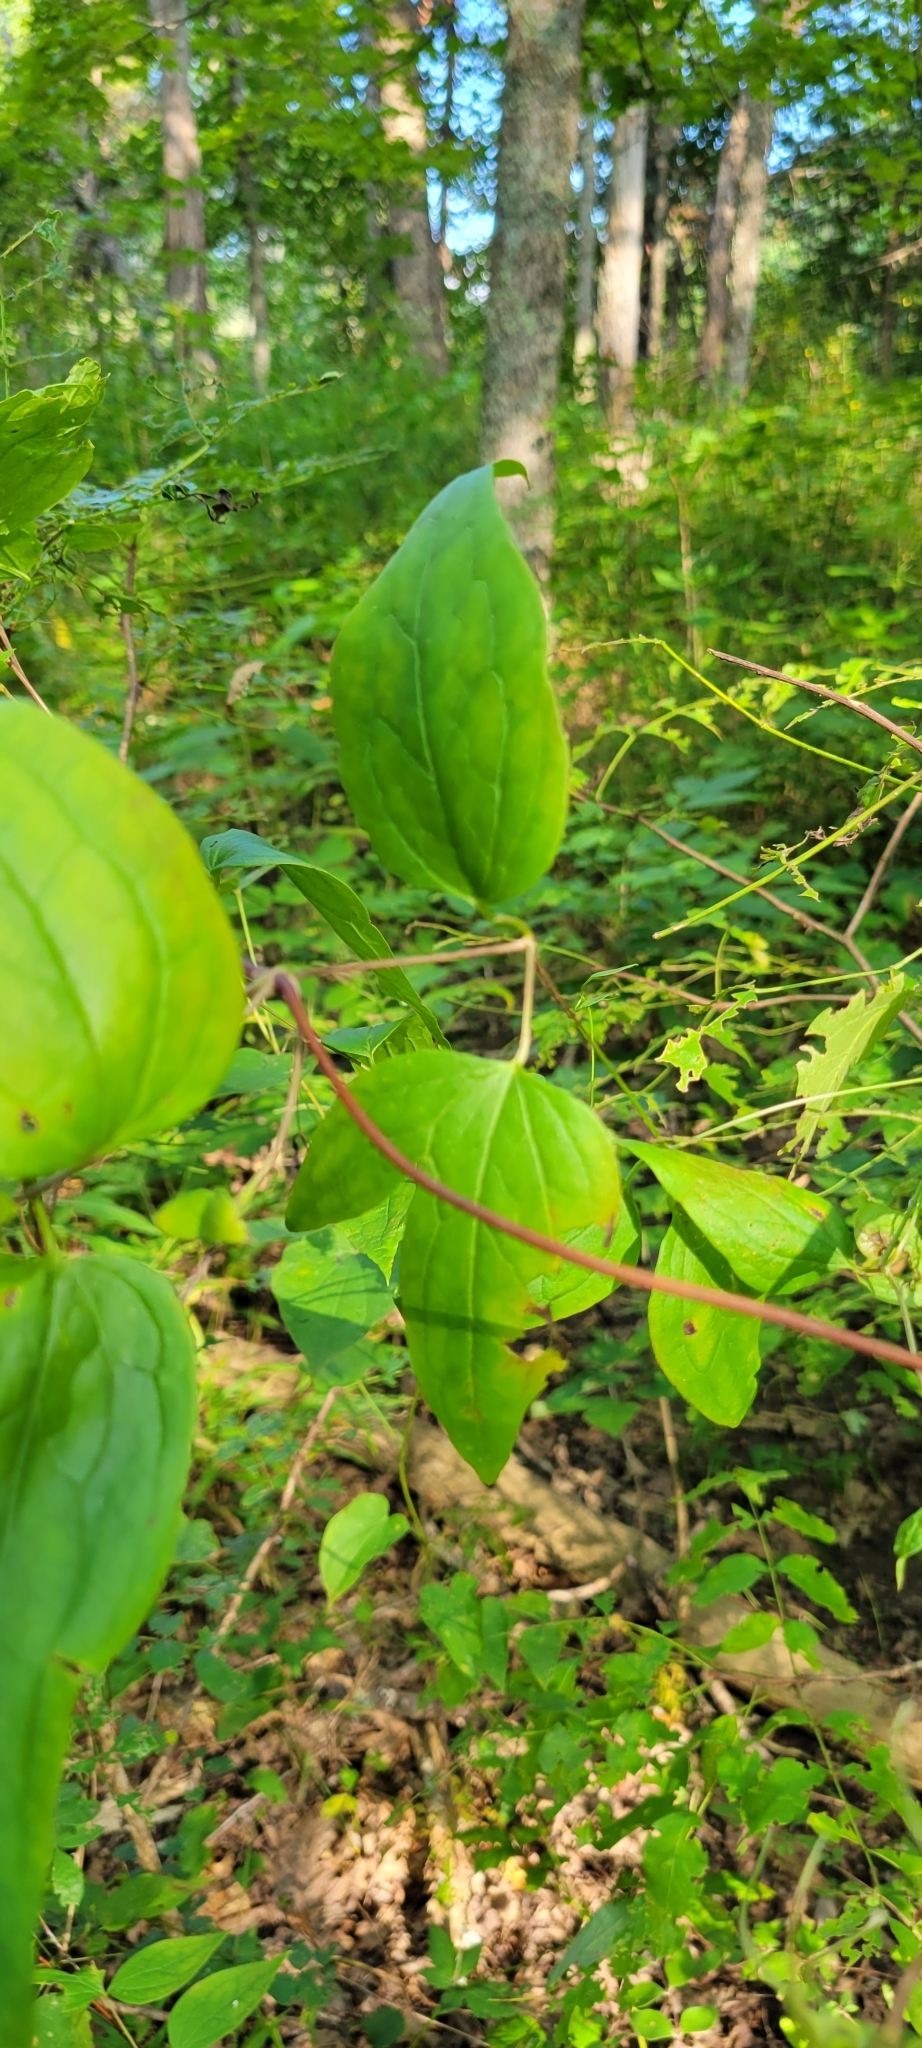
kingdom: Plantae
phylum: Tracheophyta
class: Magnoliopsida
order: Ranunculales
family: Ranunculaceae
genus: Clematis
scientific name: Clematis viorna
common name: Leather-flower
